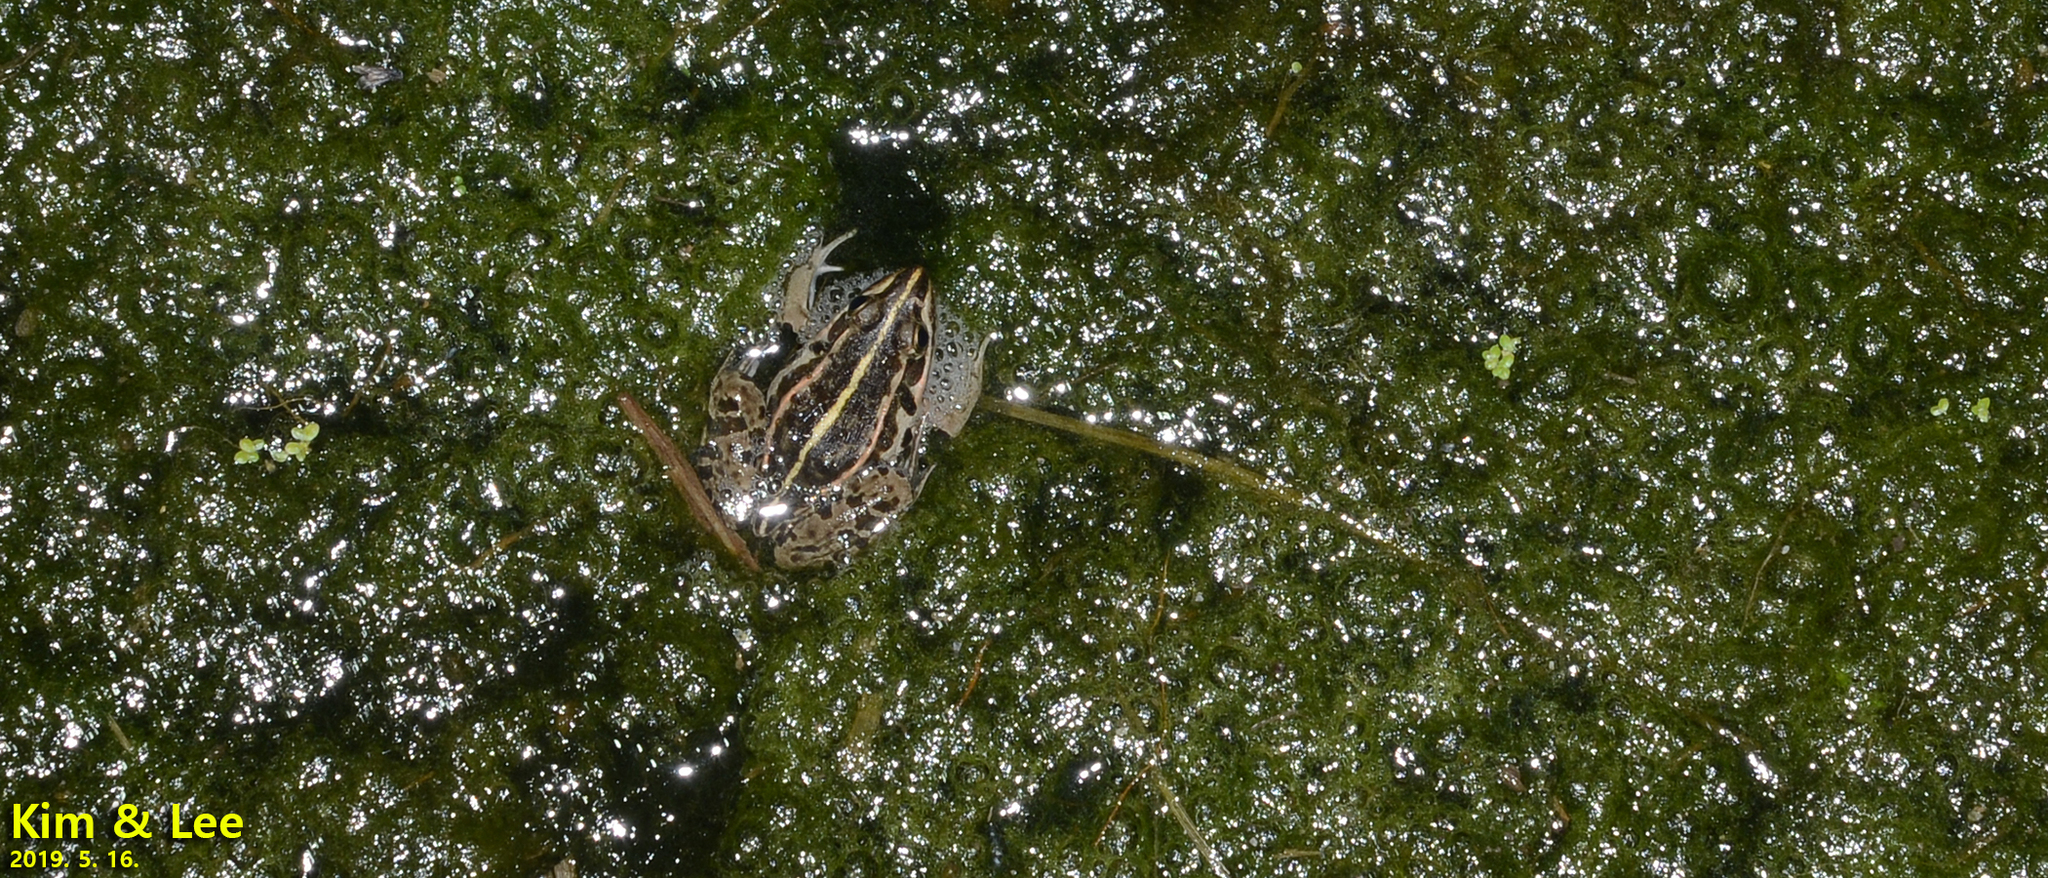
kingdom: Animalia
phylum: Chordata
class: Amphibia
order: Anura
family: Ranidae
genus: Pelophylax
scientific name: Pelophylax nigromaculatus
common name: Black-spotted pond frog
